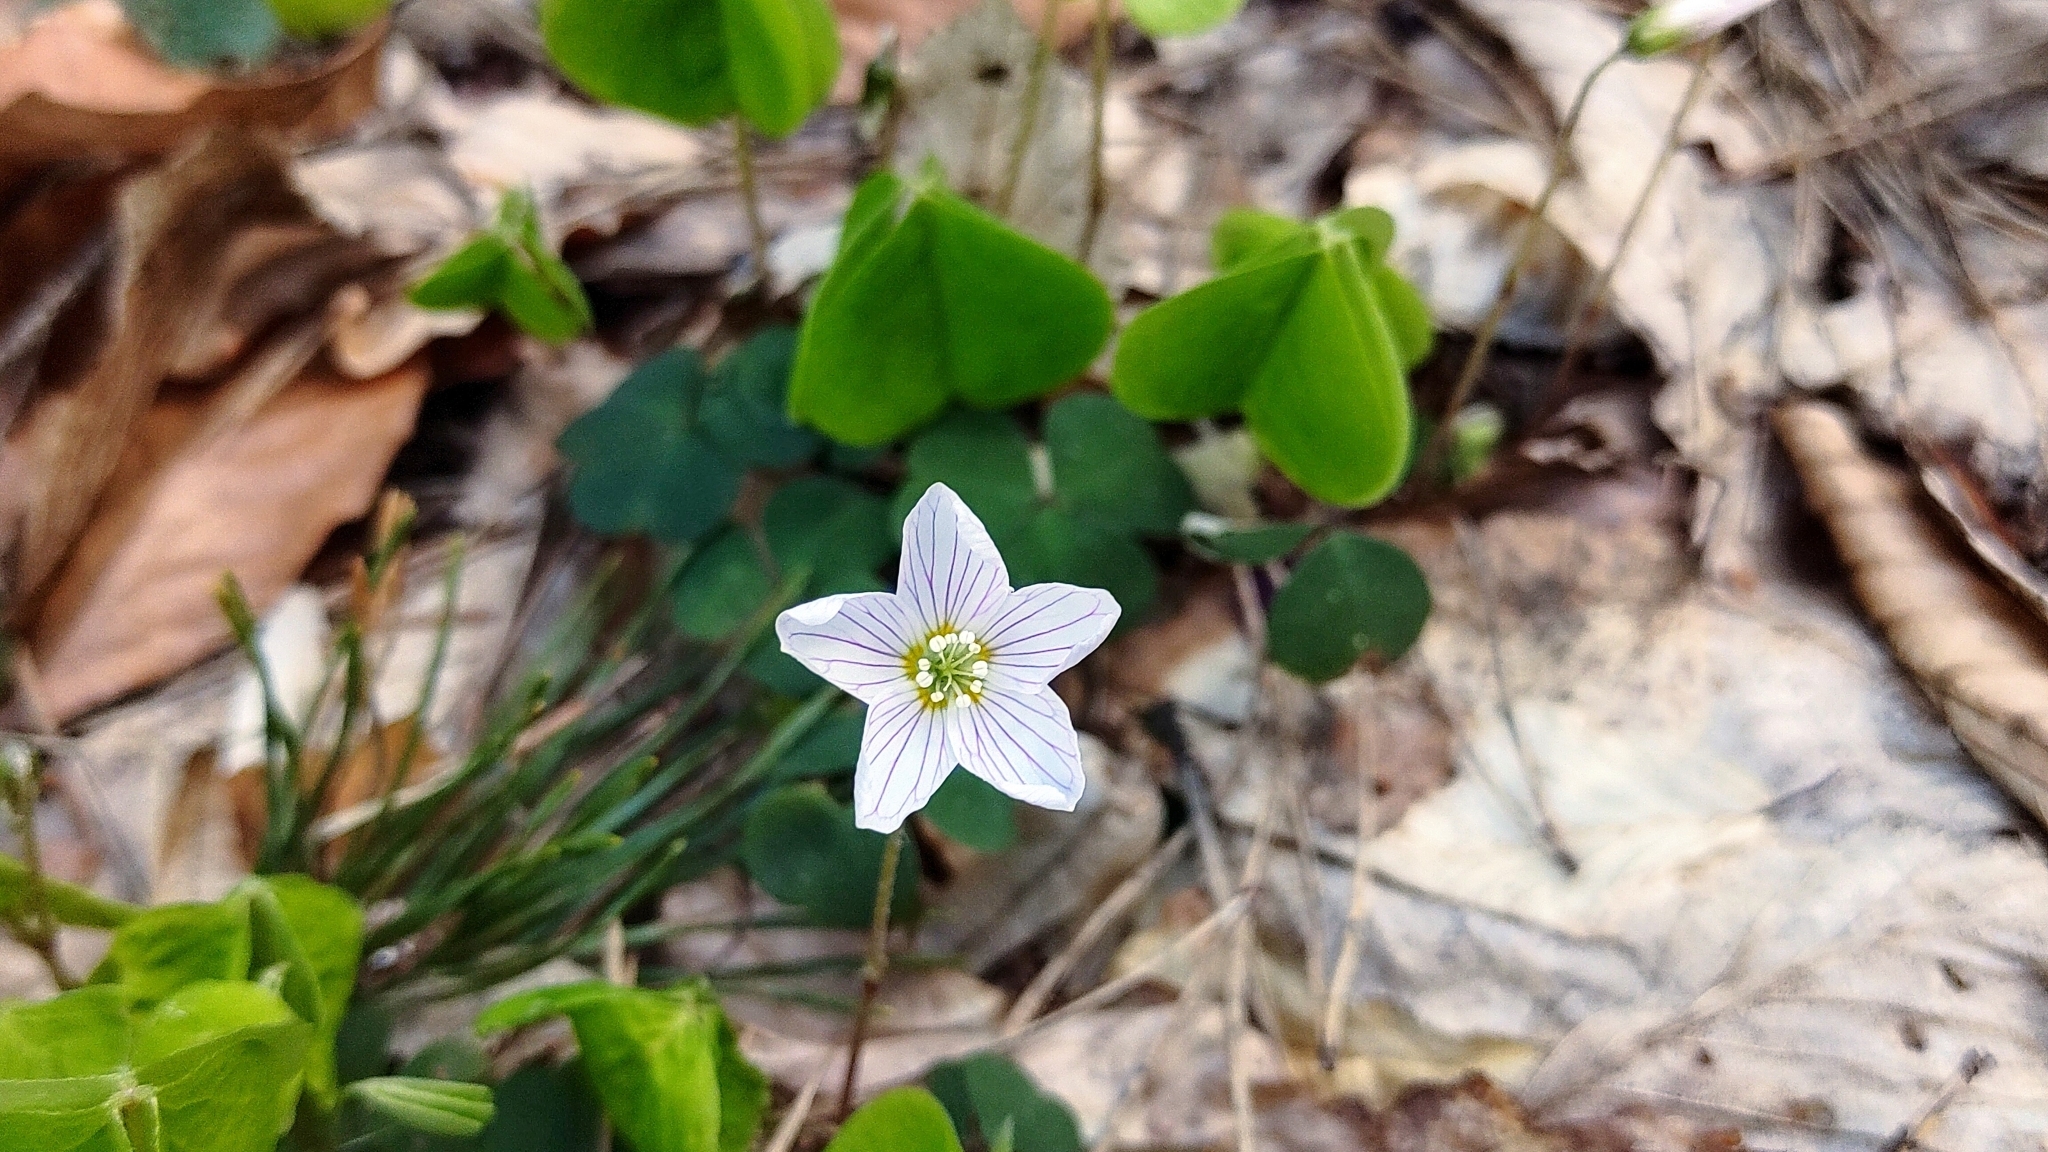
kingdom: Plantae
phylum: Tracheophyta
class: Magnoliopsida
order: Oxalidales
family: Oxalidaceae
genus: Oxalis
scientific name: Oxalis acetosella
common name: Wood-sorrel
